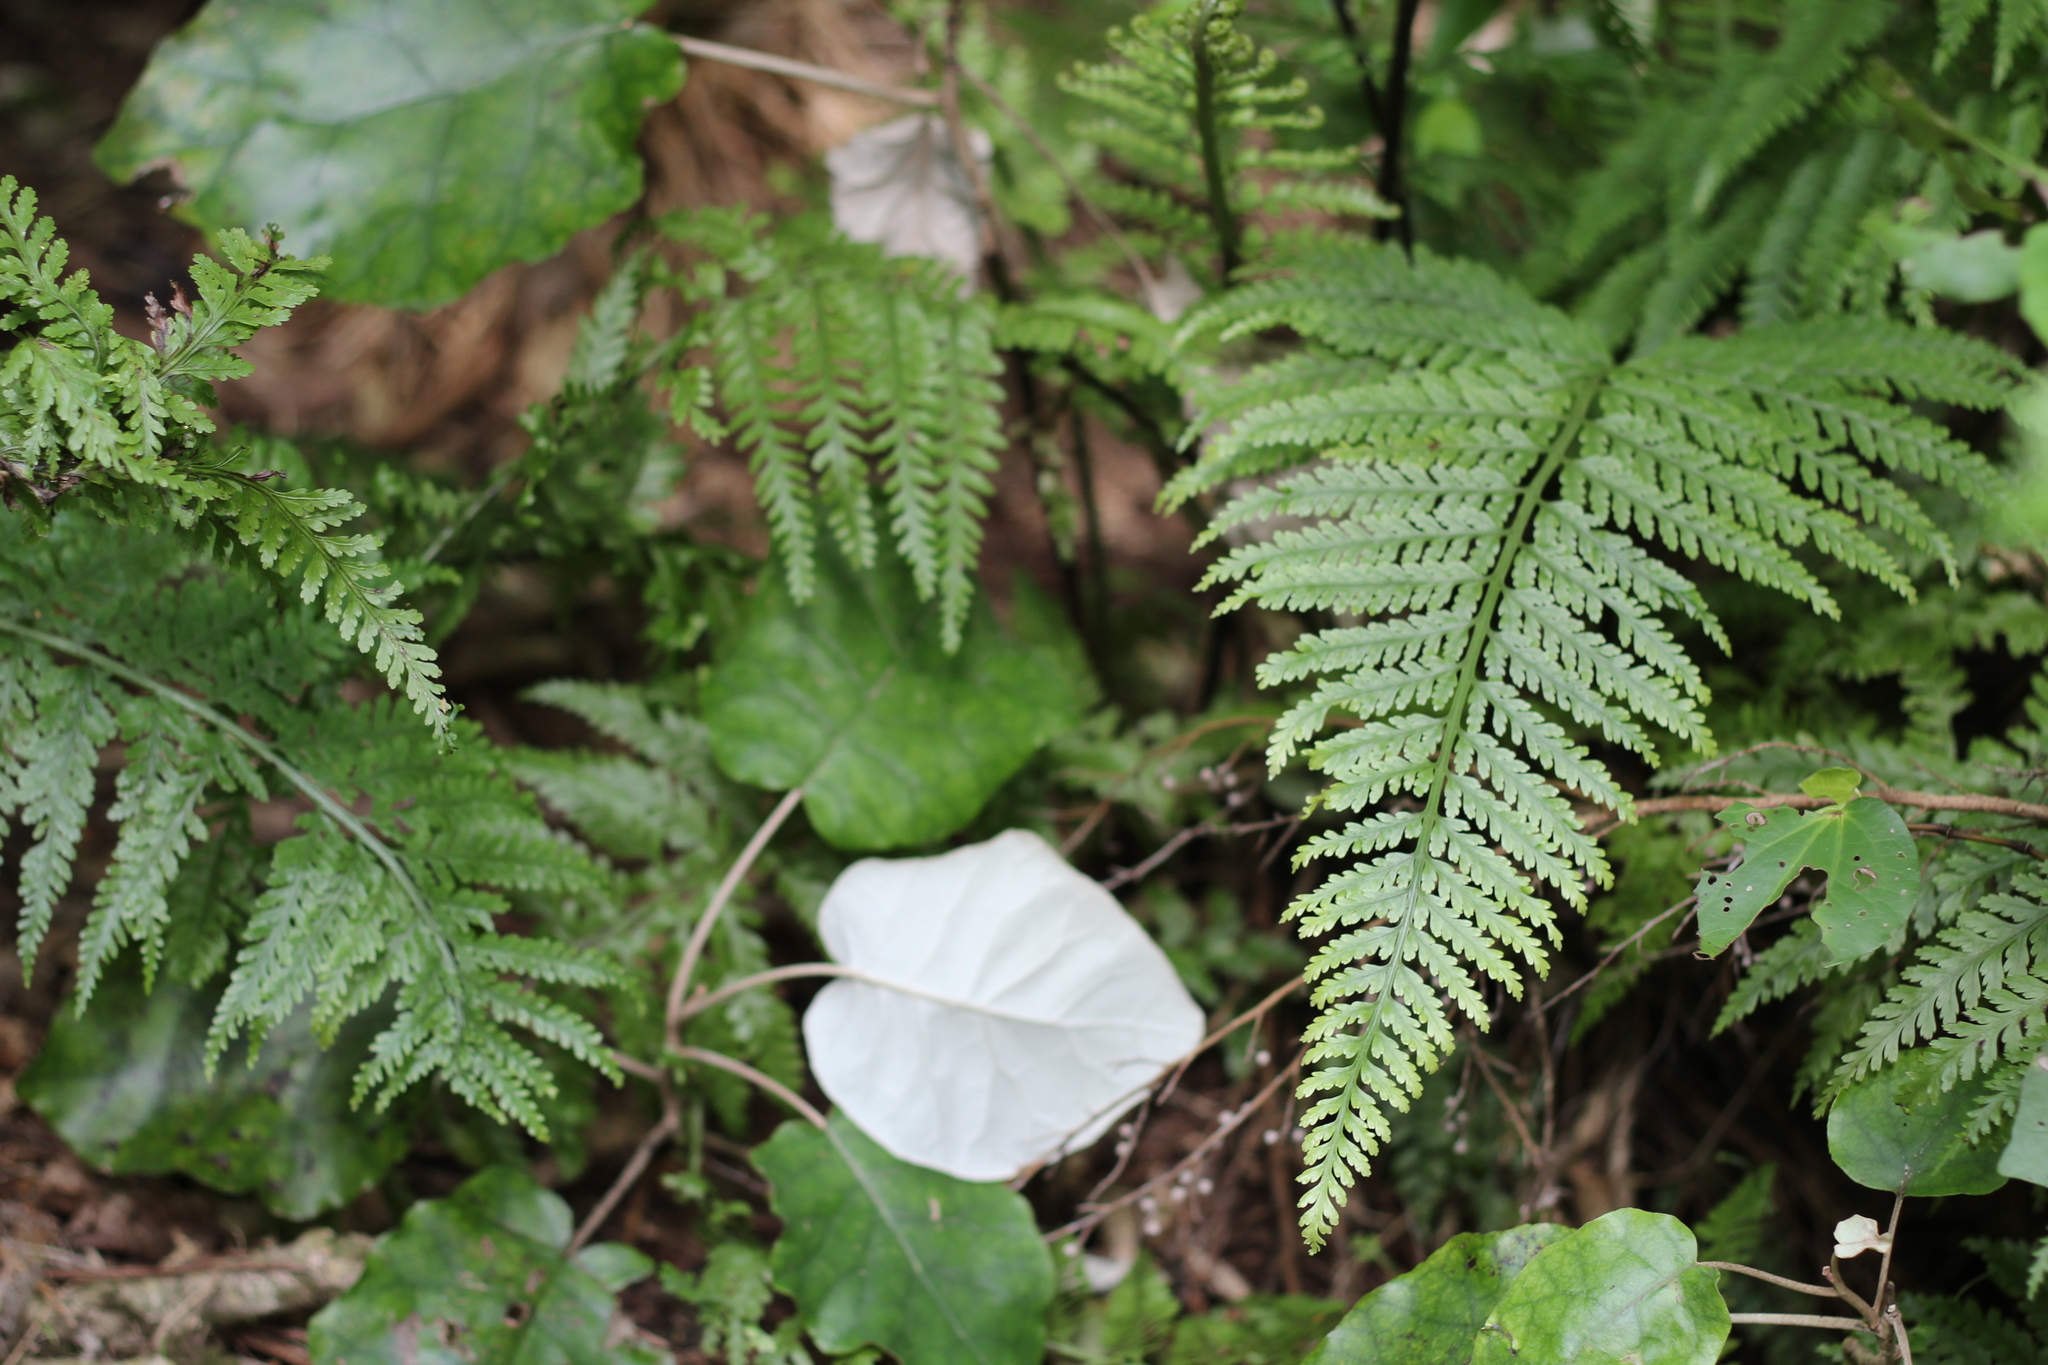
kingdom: Plantae
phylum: Tracheophyta
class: Polypodiopsida
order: Polypodiales
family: Aspleniaceae
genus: Asplenium
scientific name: Asplenium bulbiferum
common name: Mother fern
